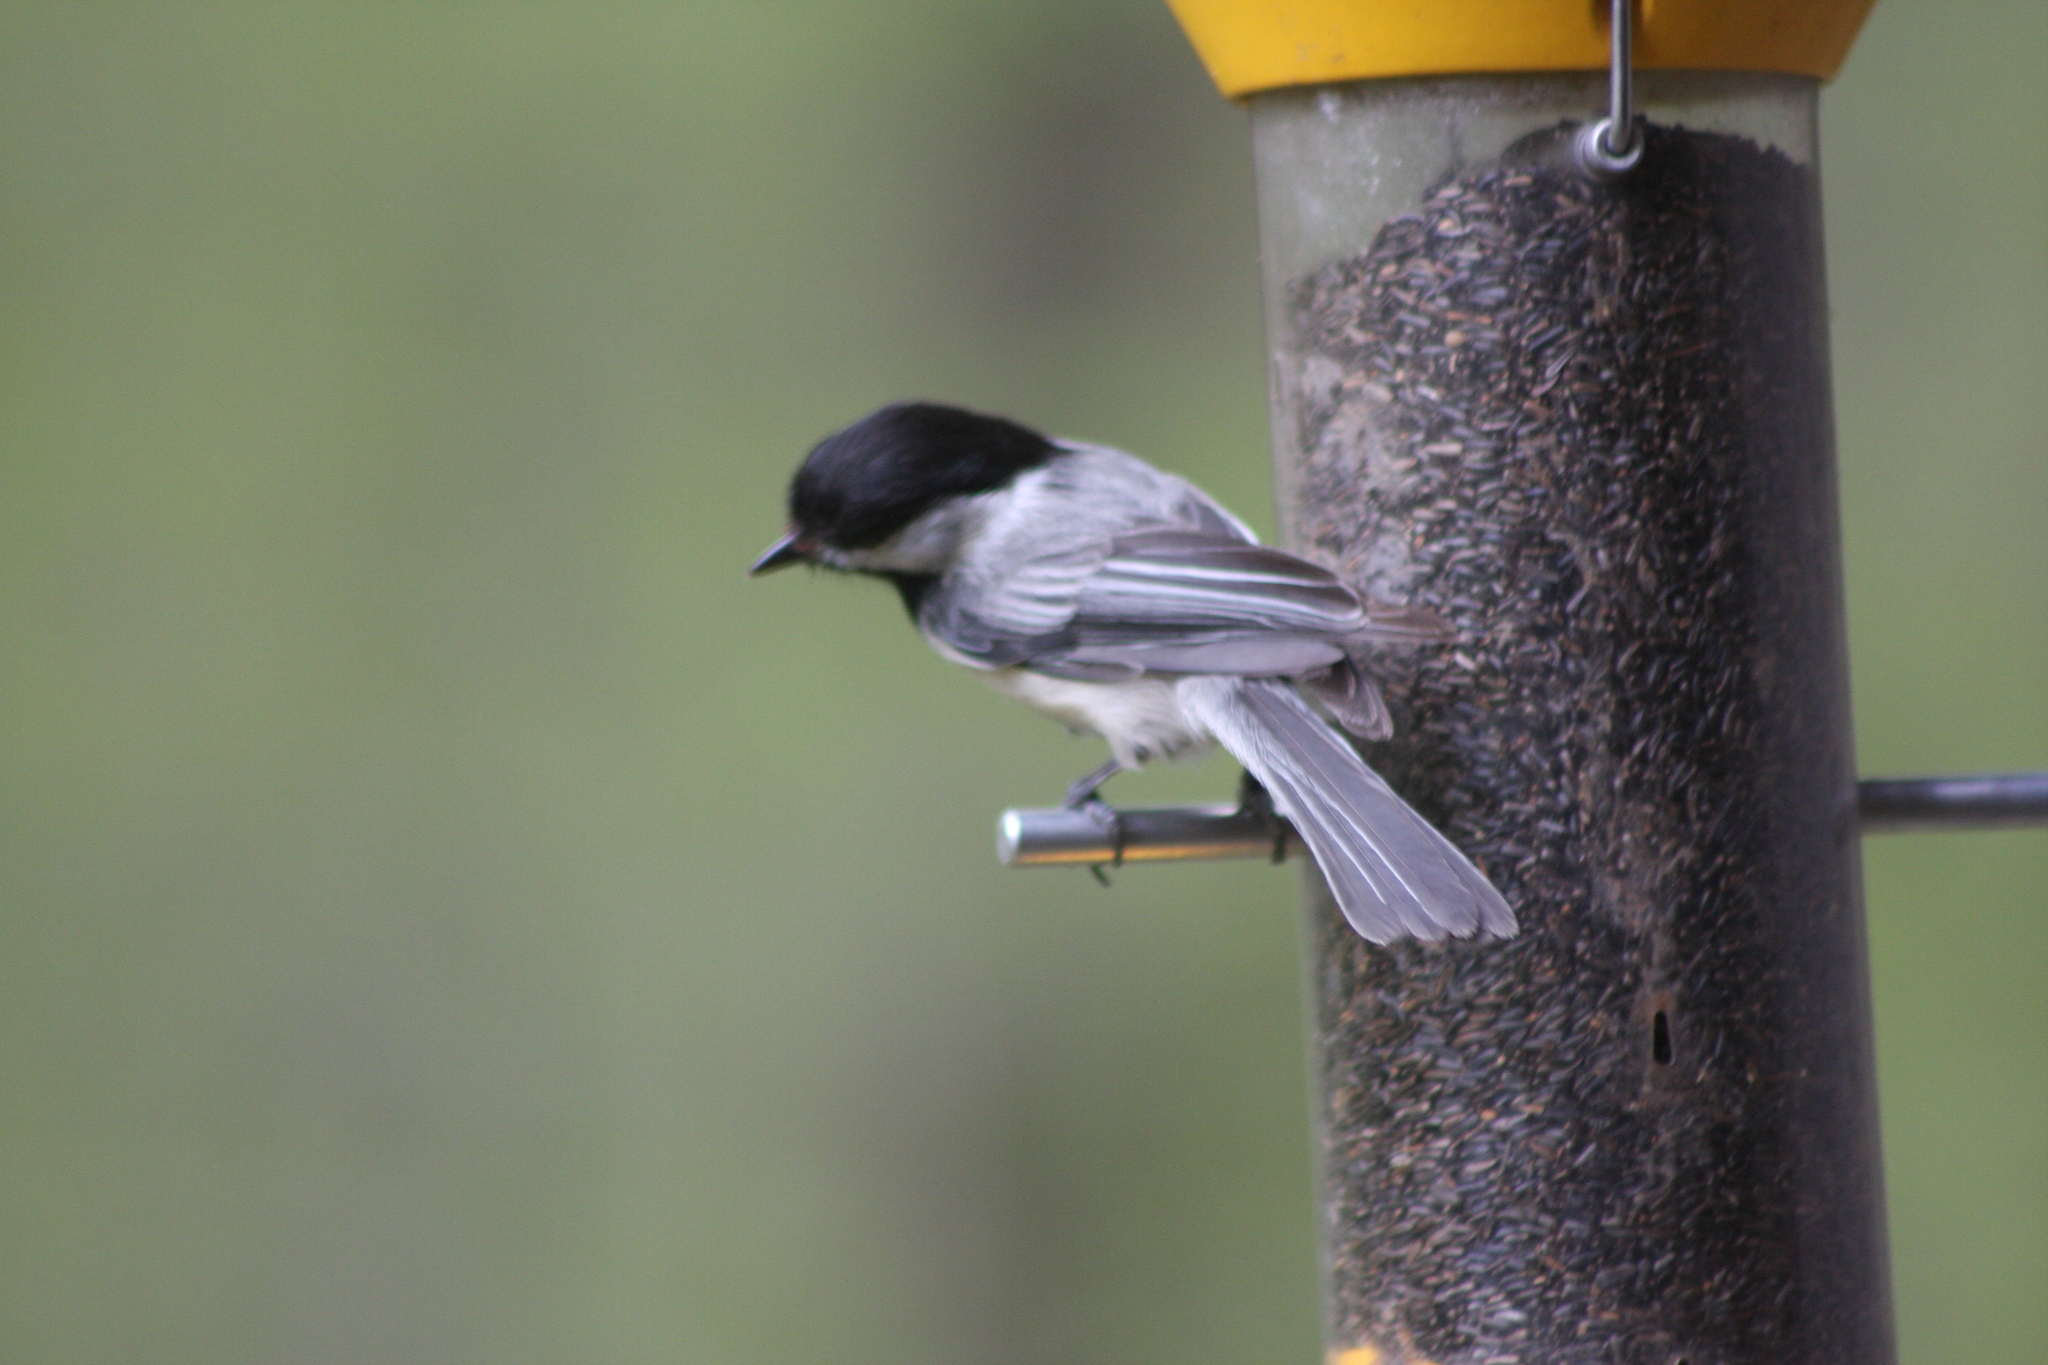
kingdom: Animalia
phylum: Chordata
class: Aves
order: Passeriformes
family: Paridae
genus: Poecile
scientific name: Poecile atricapillus
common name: Black-capped chickadee
